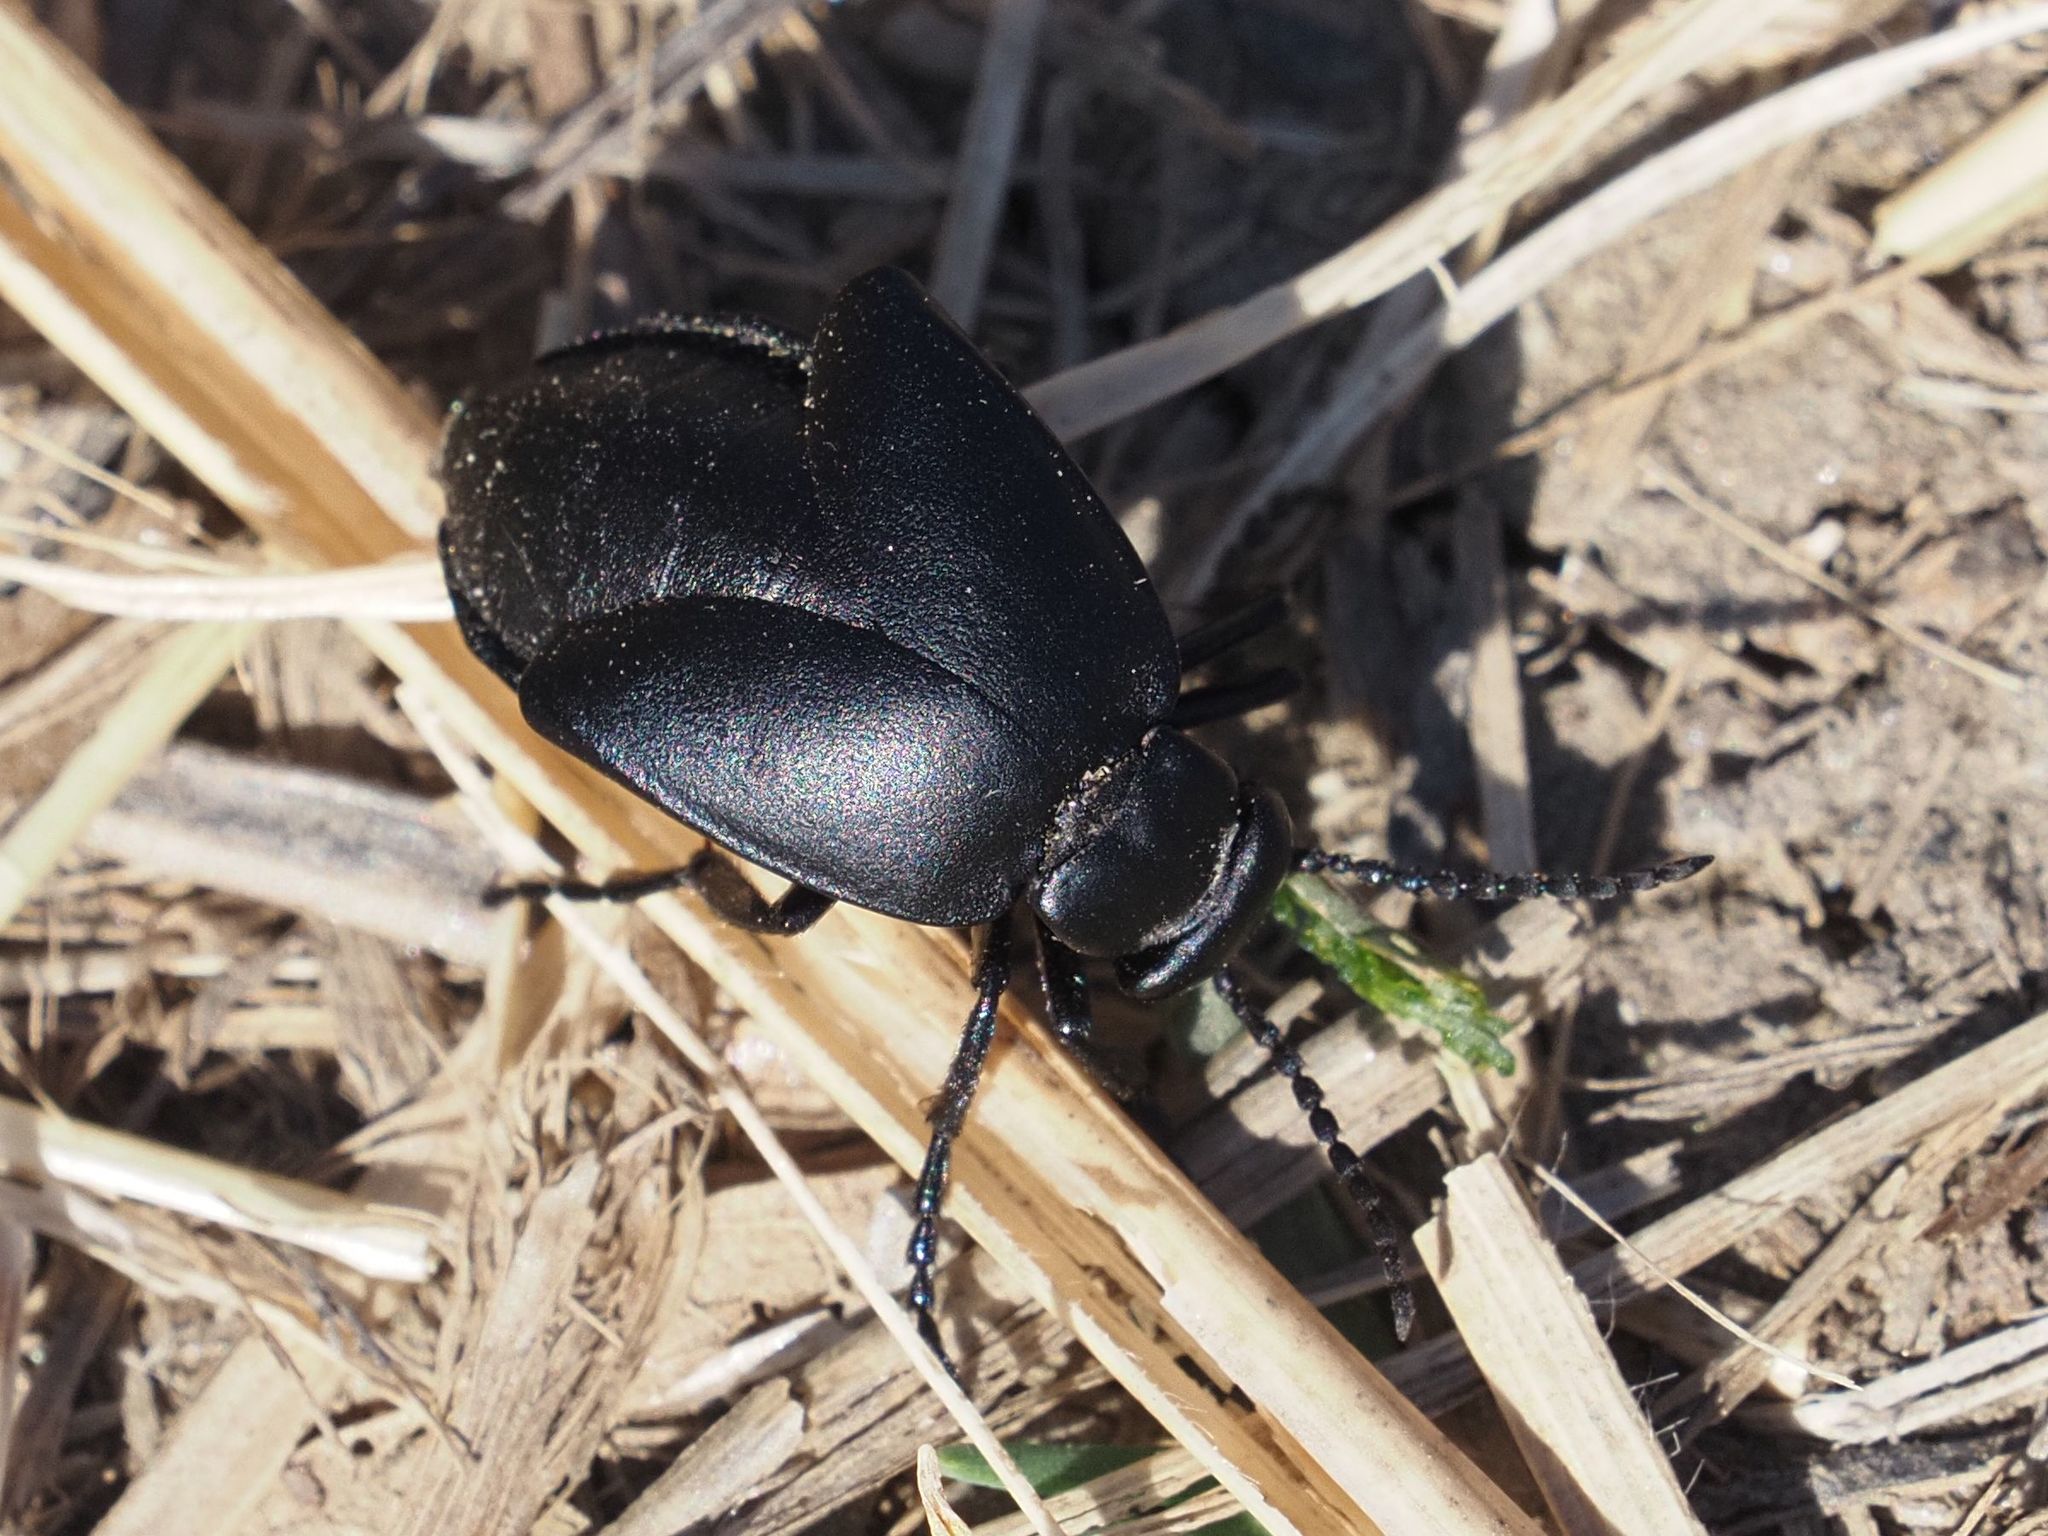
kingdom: Animalia
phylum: Arthropoda
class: Insecta
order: Coleoptera
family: Meloidae
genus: Meloe
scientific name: Meloe uralensis
